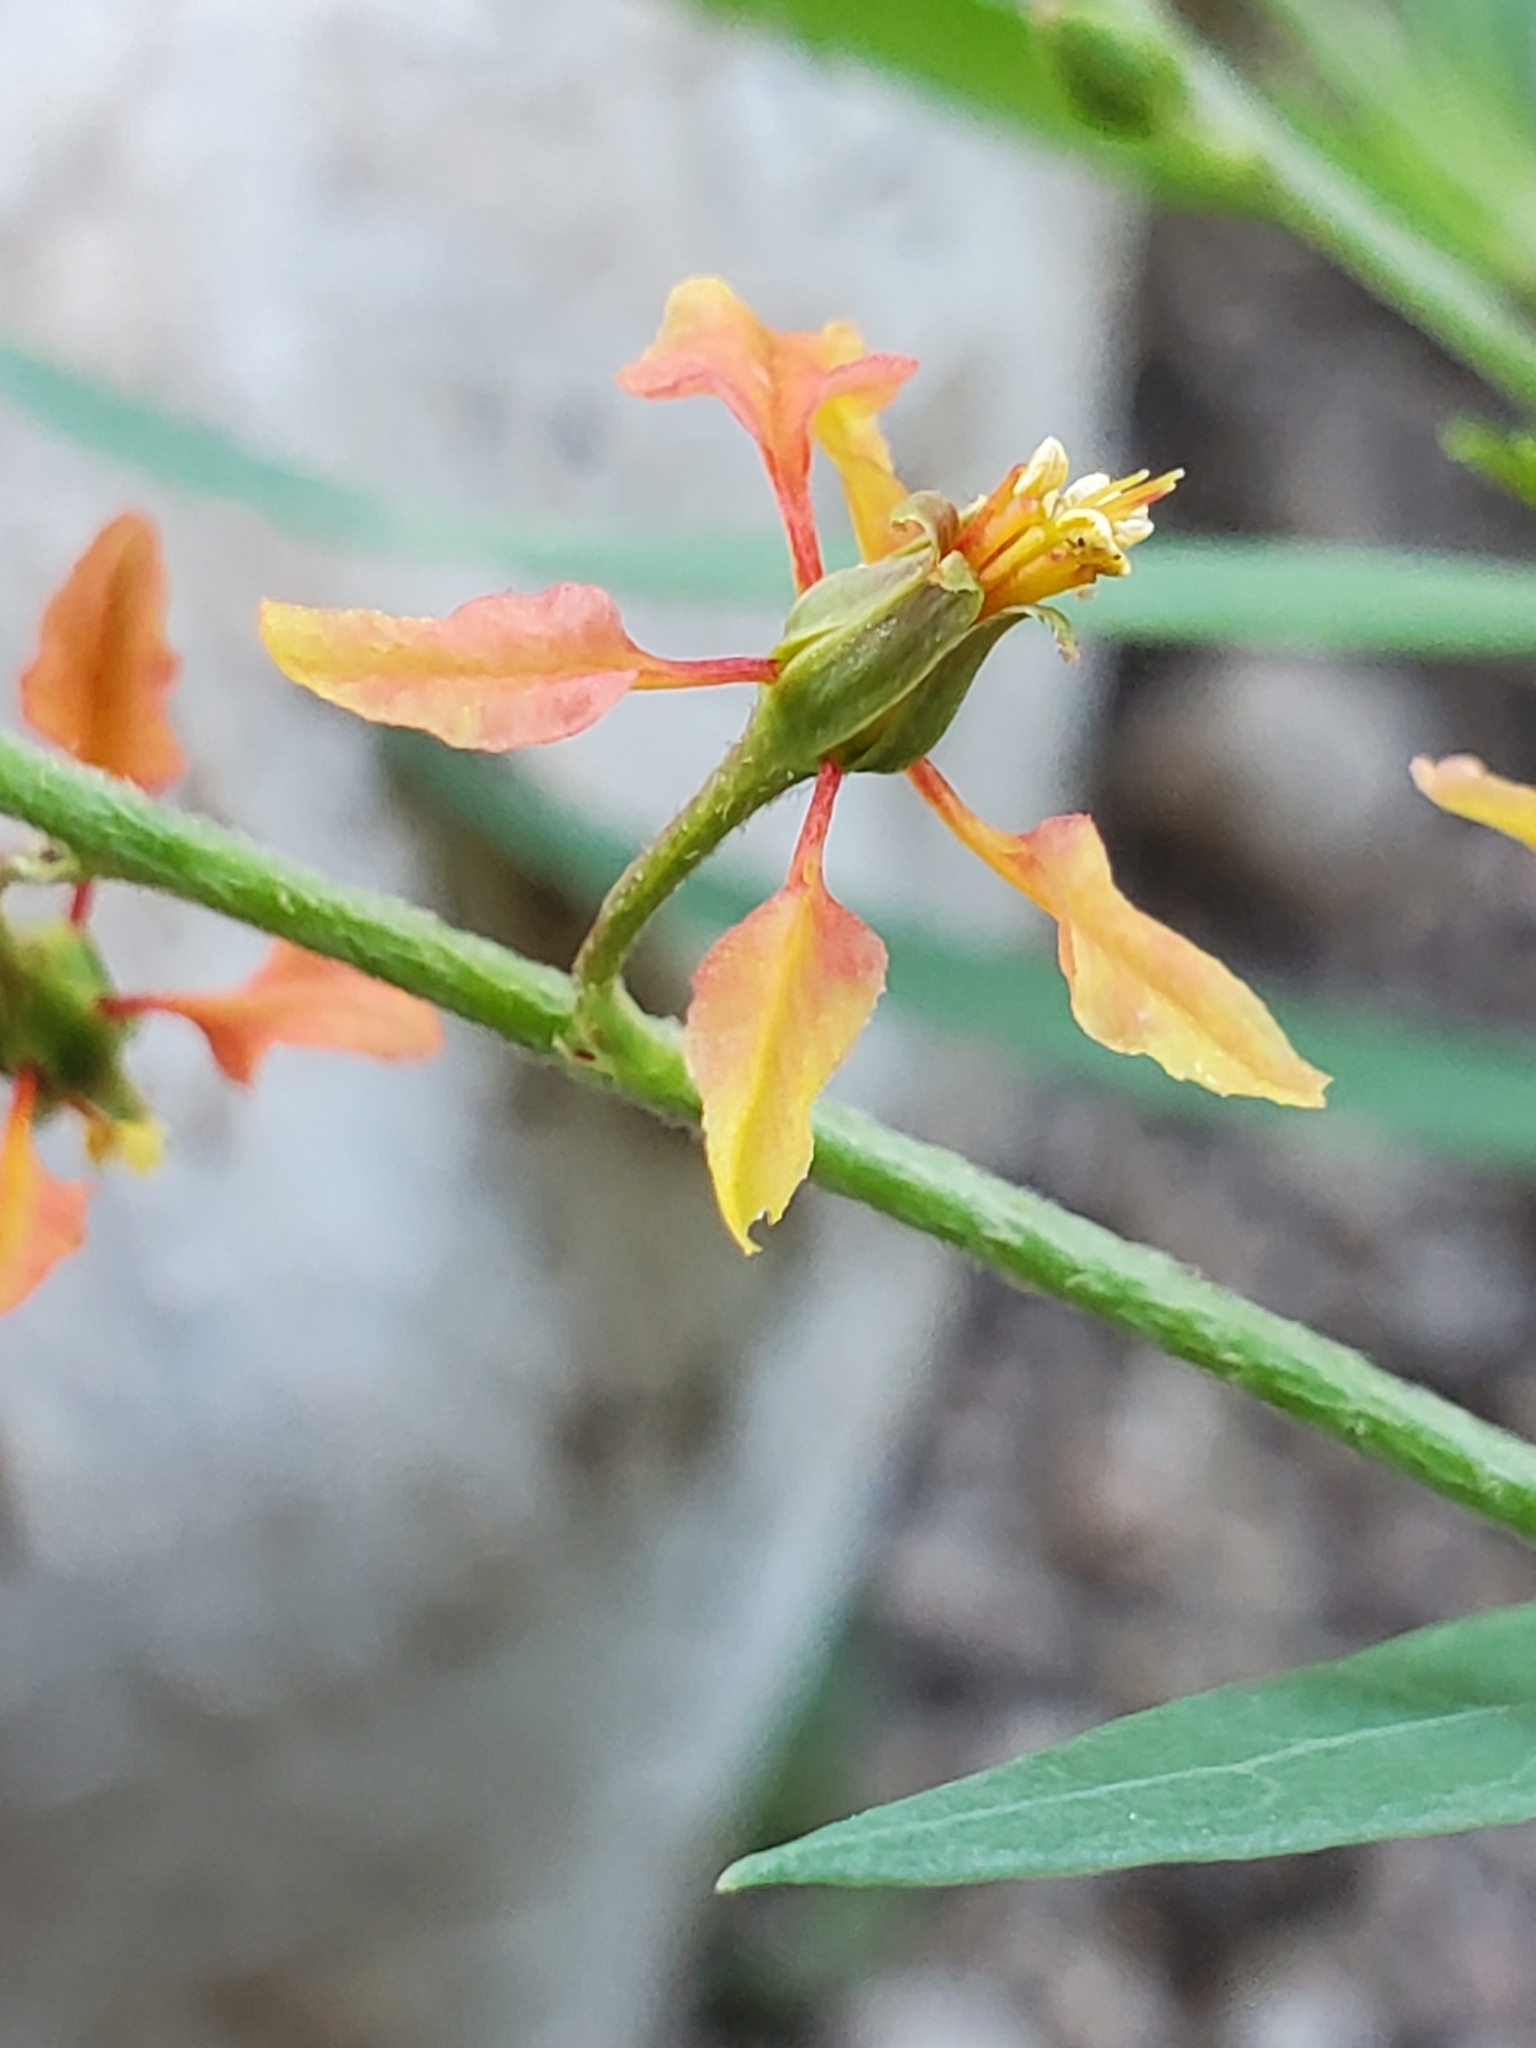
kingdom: Plantae
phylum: Tracheophyta
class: Magnoliopsida
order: Malpighiales
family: Malpighiaceae
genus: Galphimia
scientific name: Galphimia angustifolia
